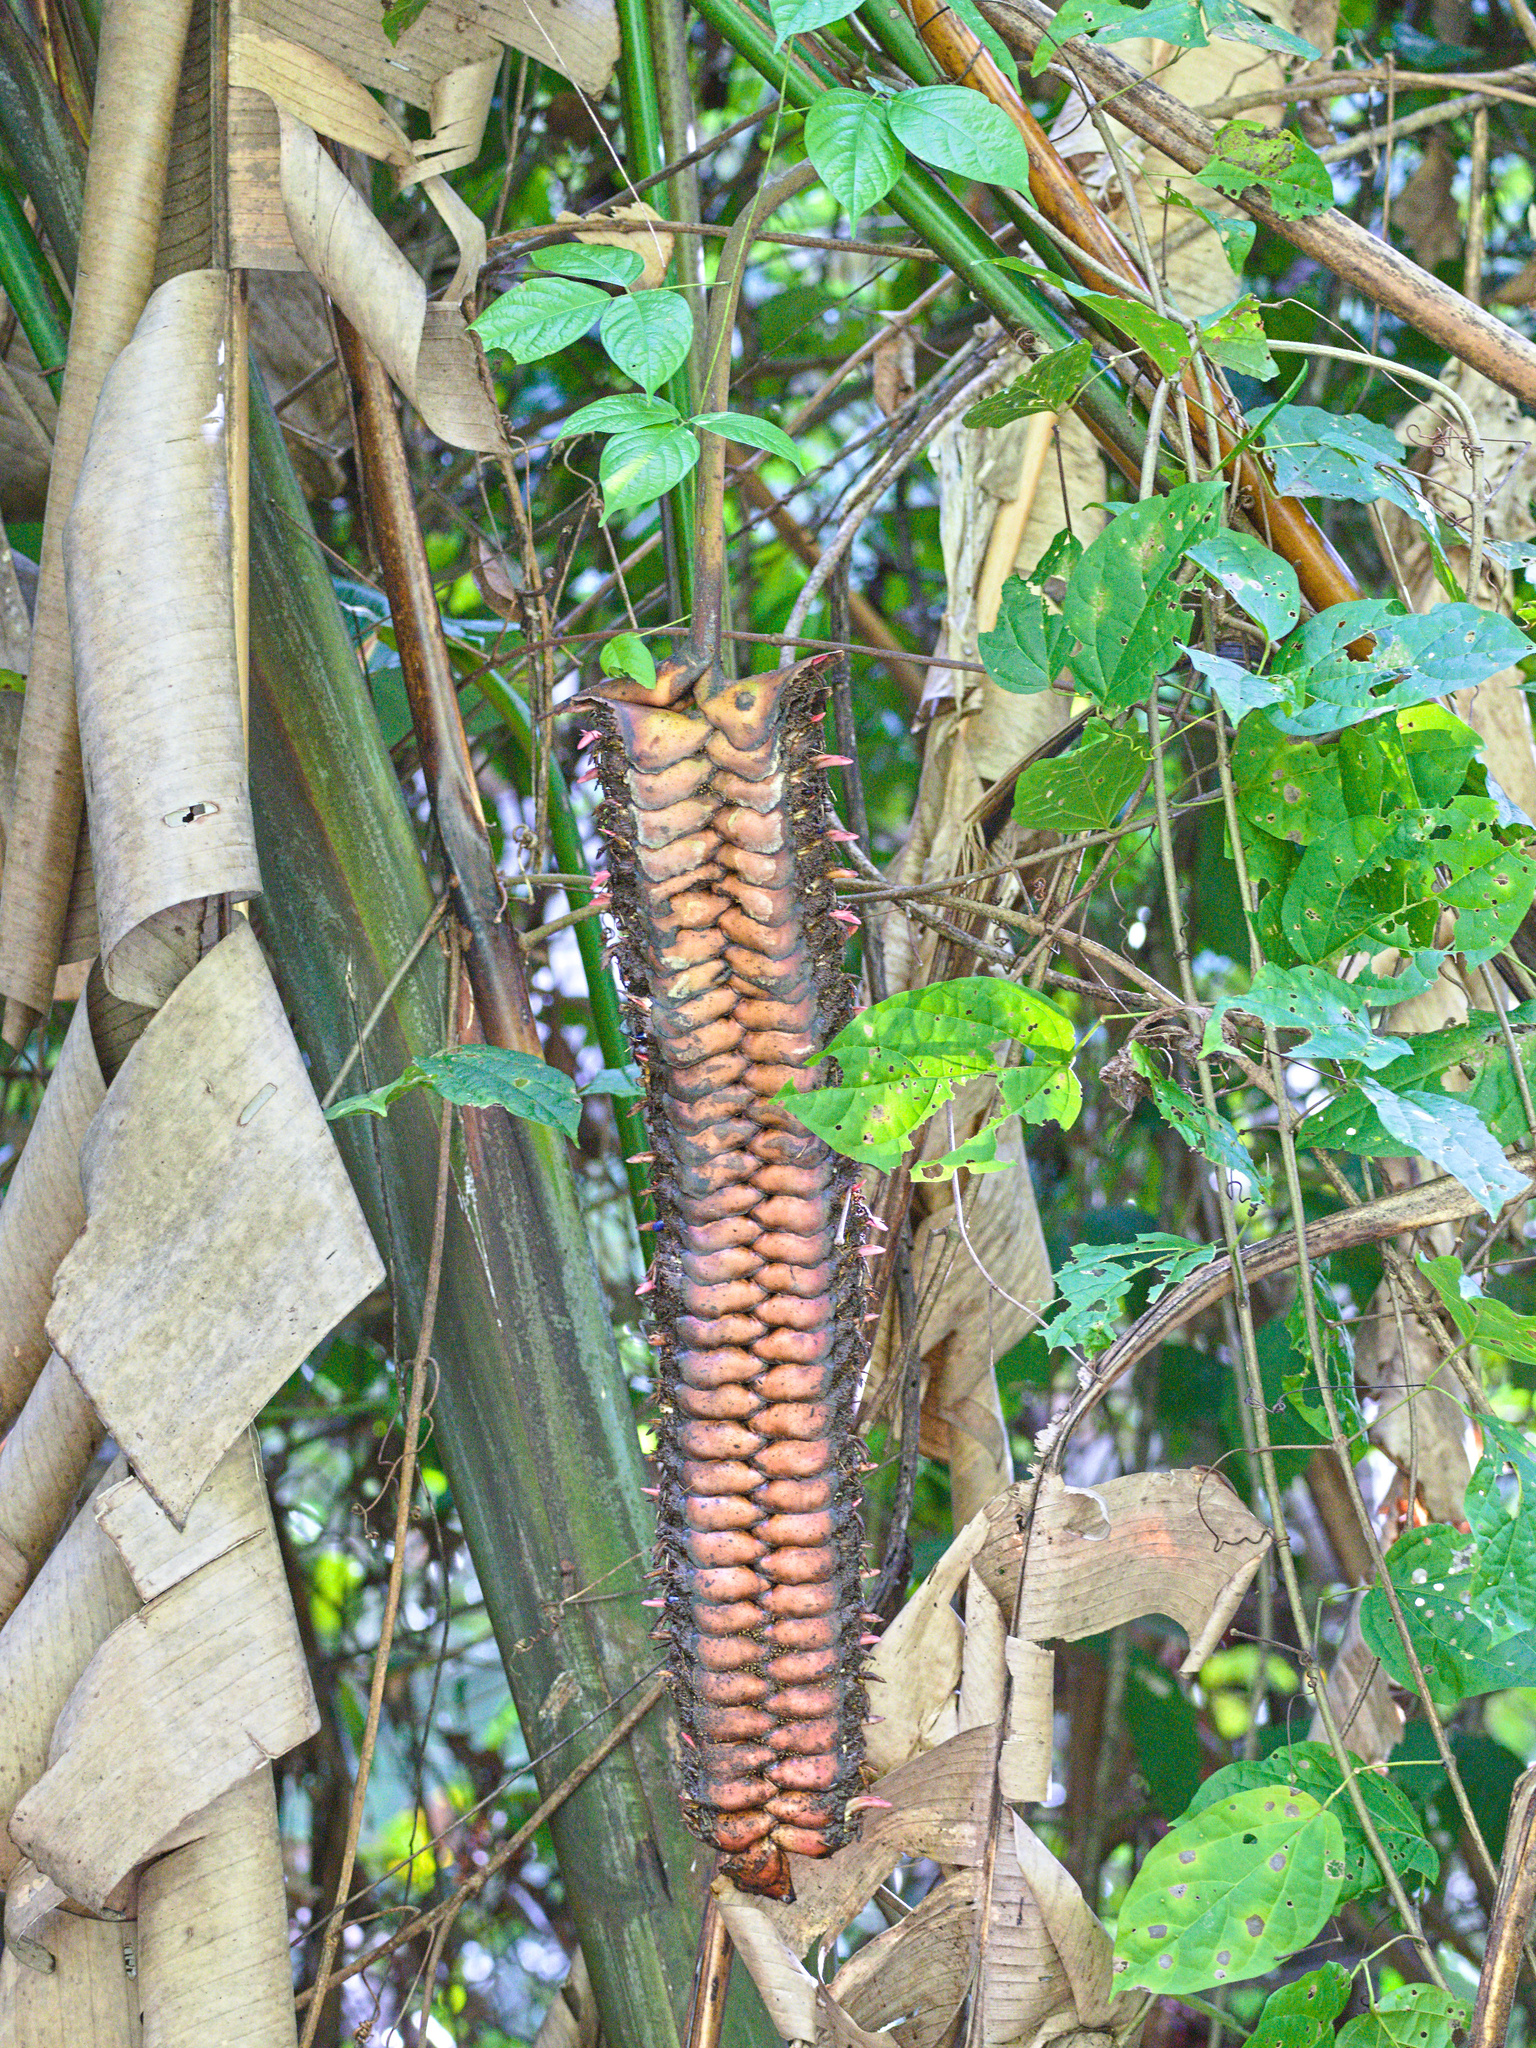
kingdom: Plantae
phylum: Tracheophyta
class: Liliopsida
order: Zingiberales
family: Heliconiaceae
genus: Heliconia
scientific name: Heliconia mariae
